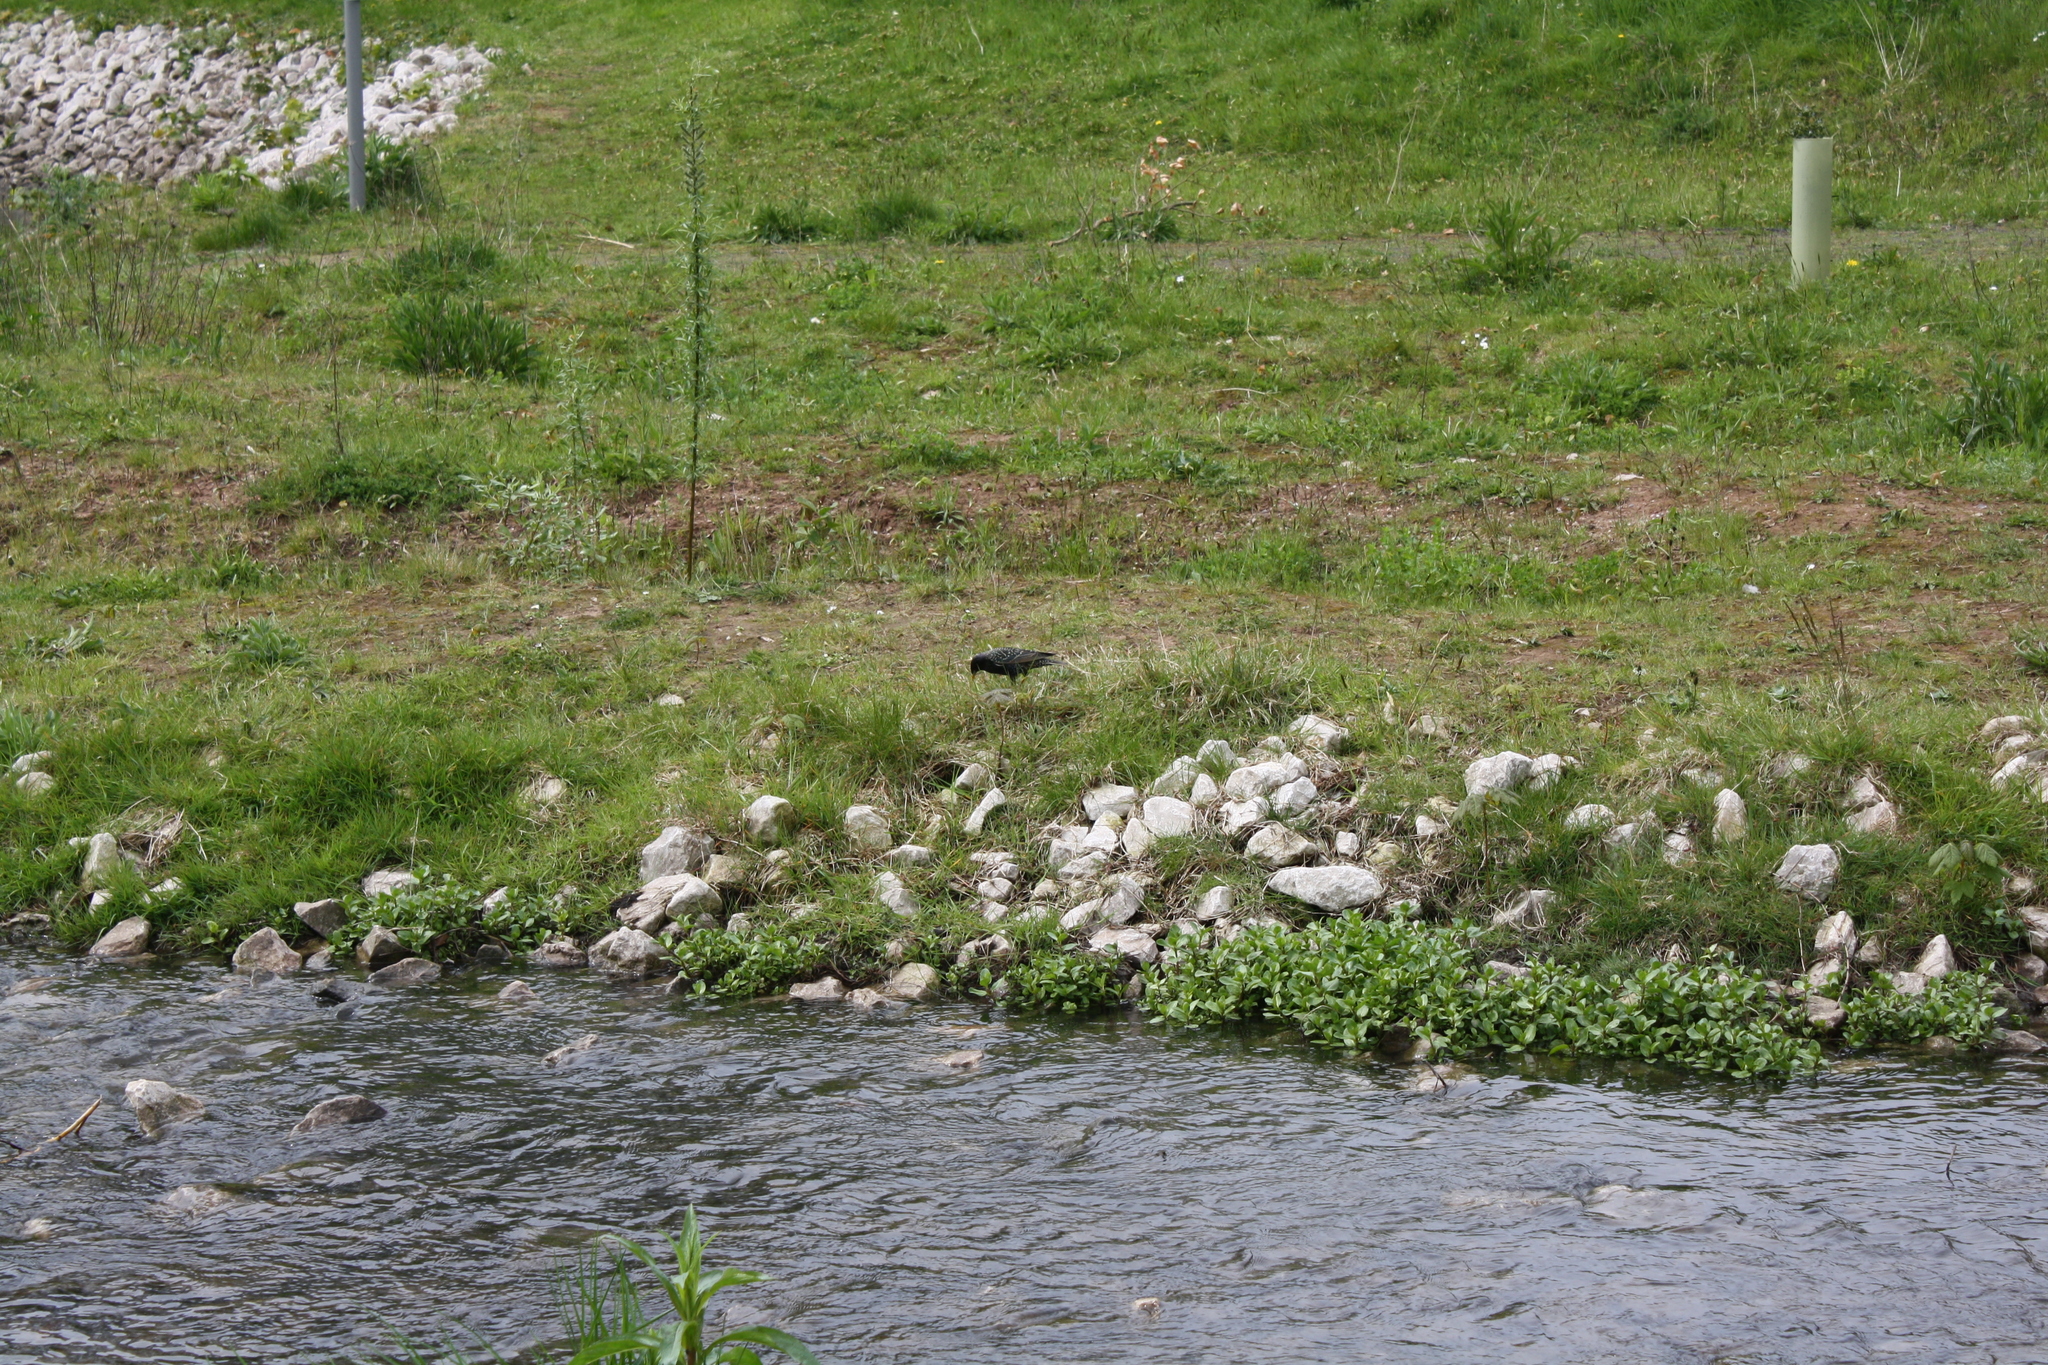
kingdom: Animalia
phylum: Chordata
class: Aves
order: Passeriformes
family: Sturnidae
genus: Sturnus
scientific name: Sturnus vulgaris
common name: Common starling
